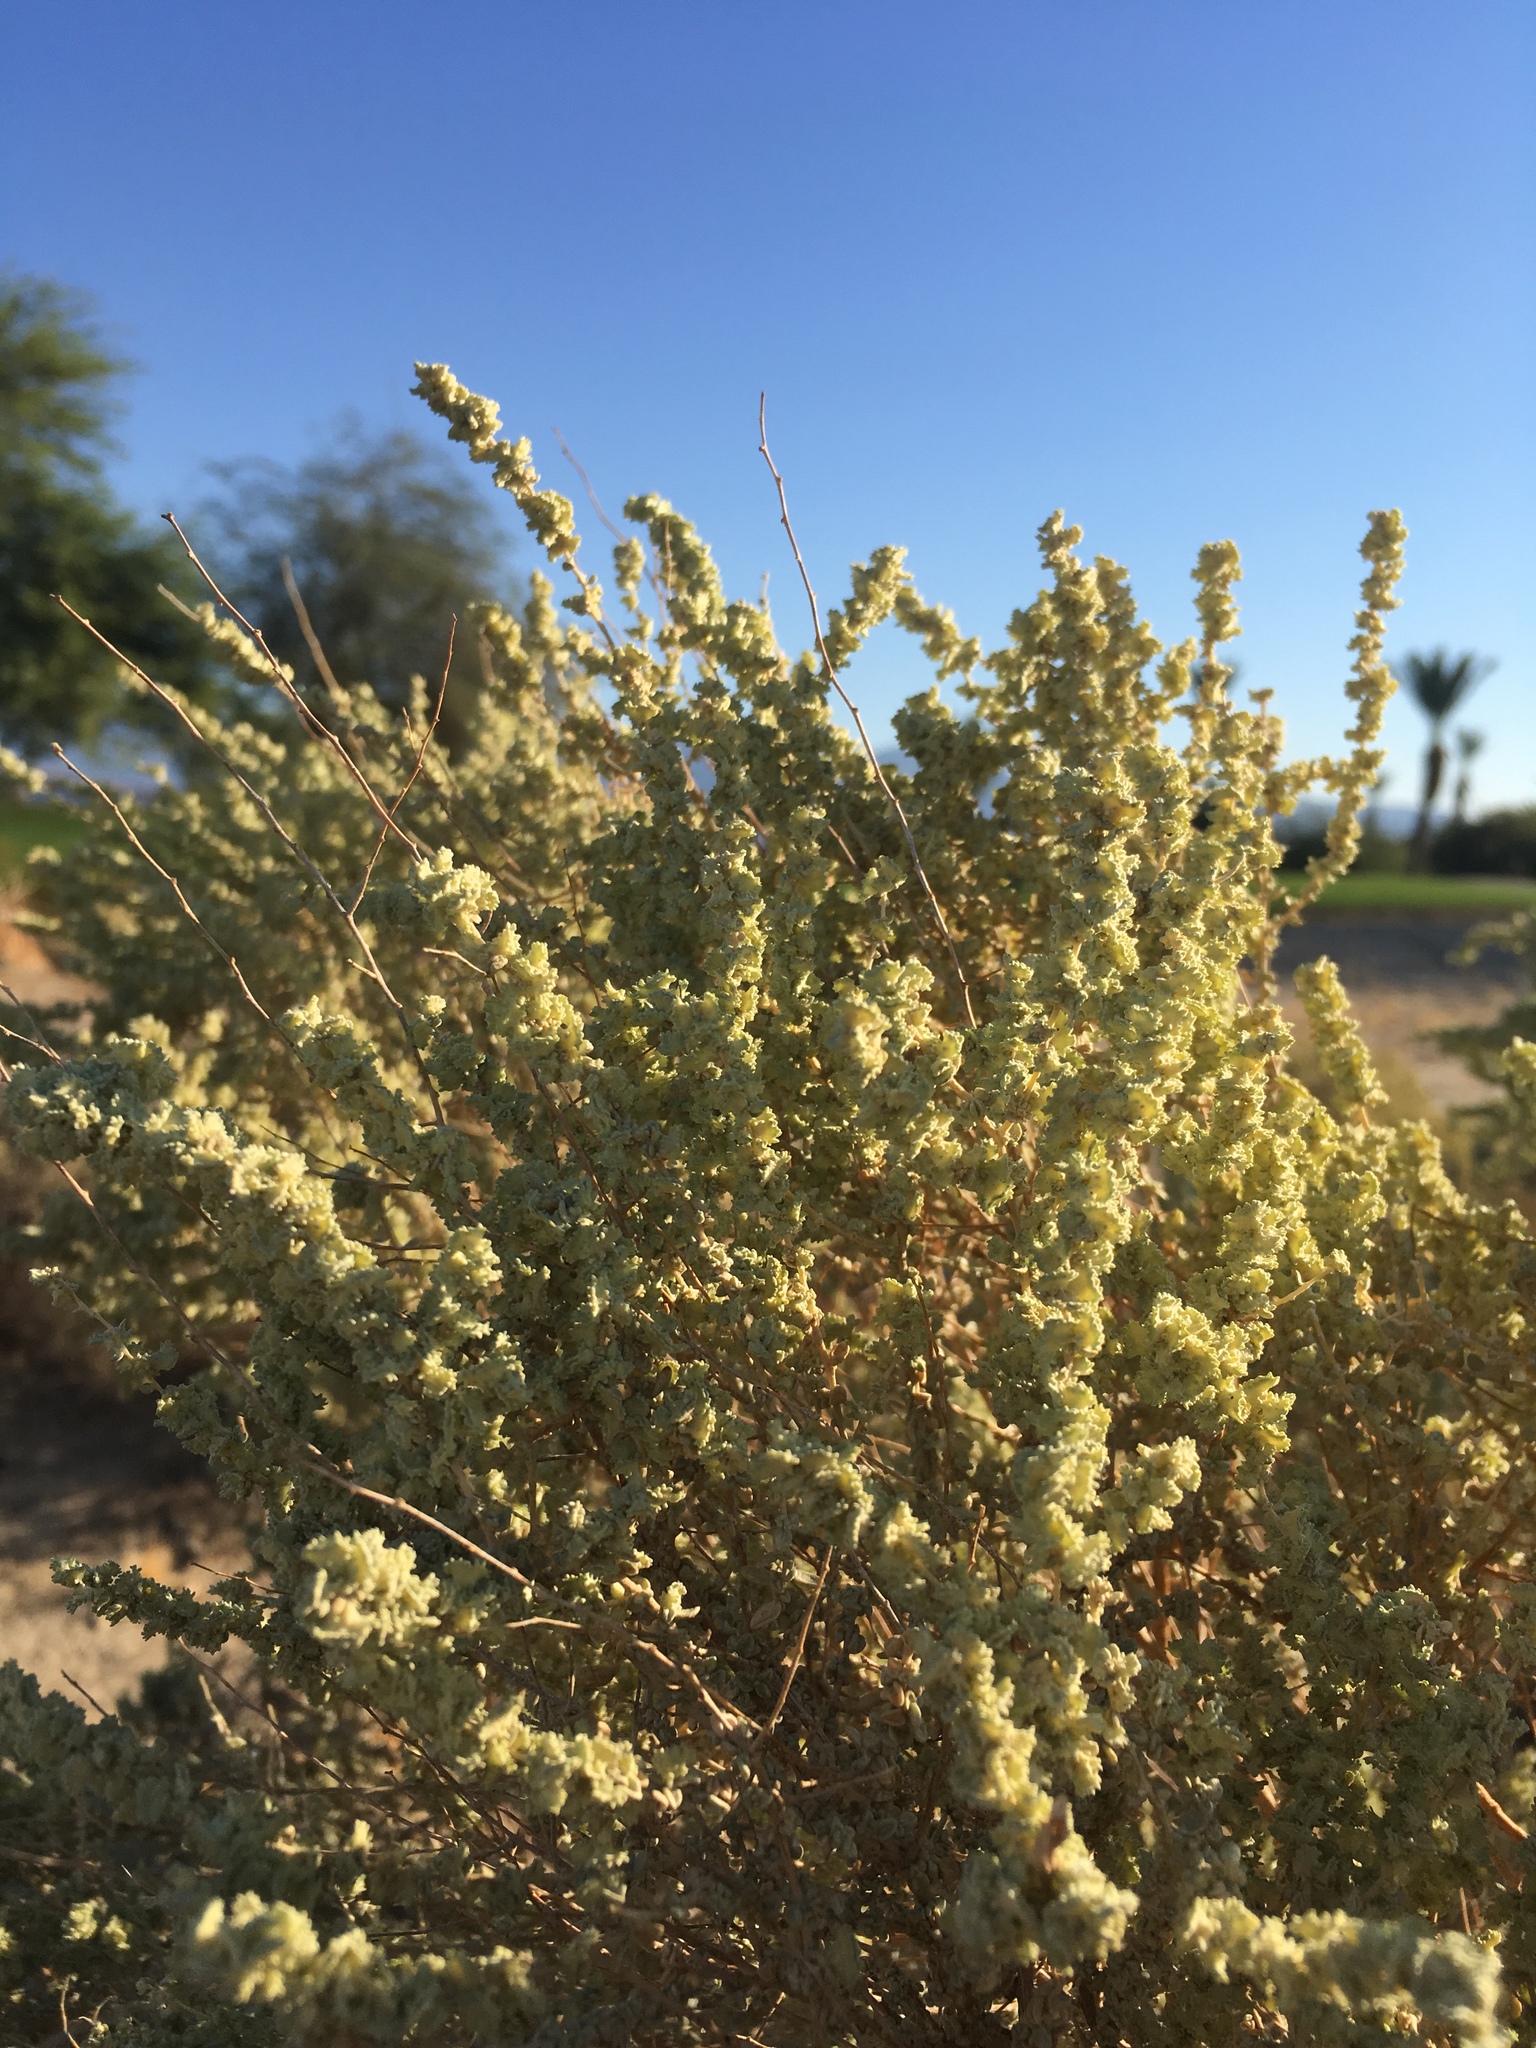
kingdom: Plantae
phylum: Tracheophyta
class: Magnoliopsida
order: Caryophyllales
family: Amaranthaceae
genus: Atriplex
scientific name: Atriplex polycarpa
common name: Desert saltbush
